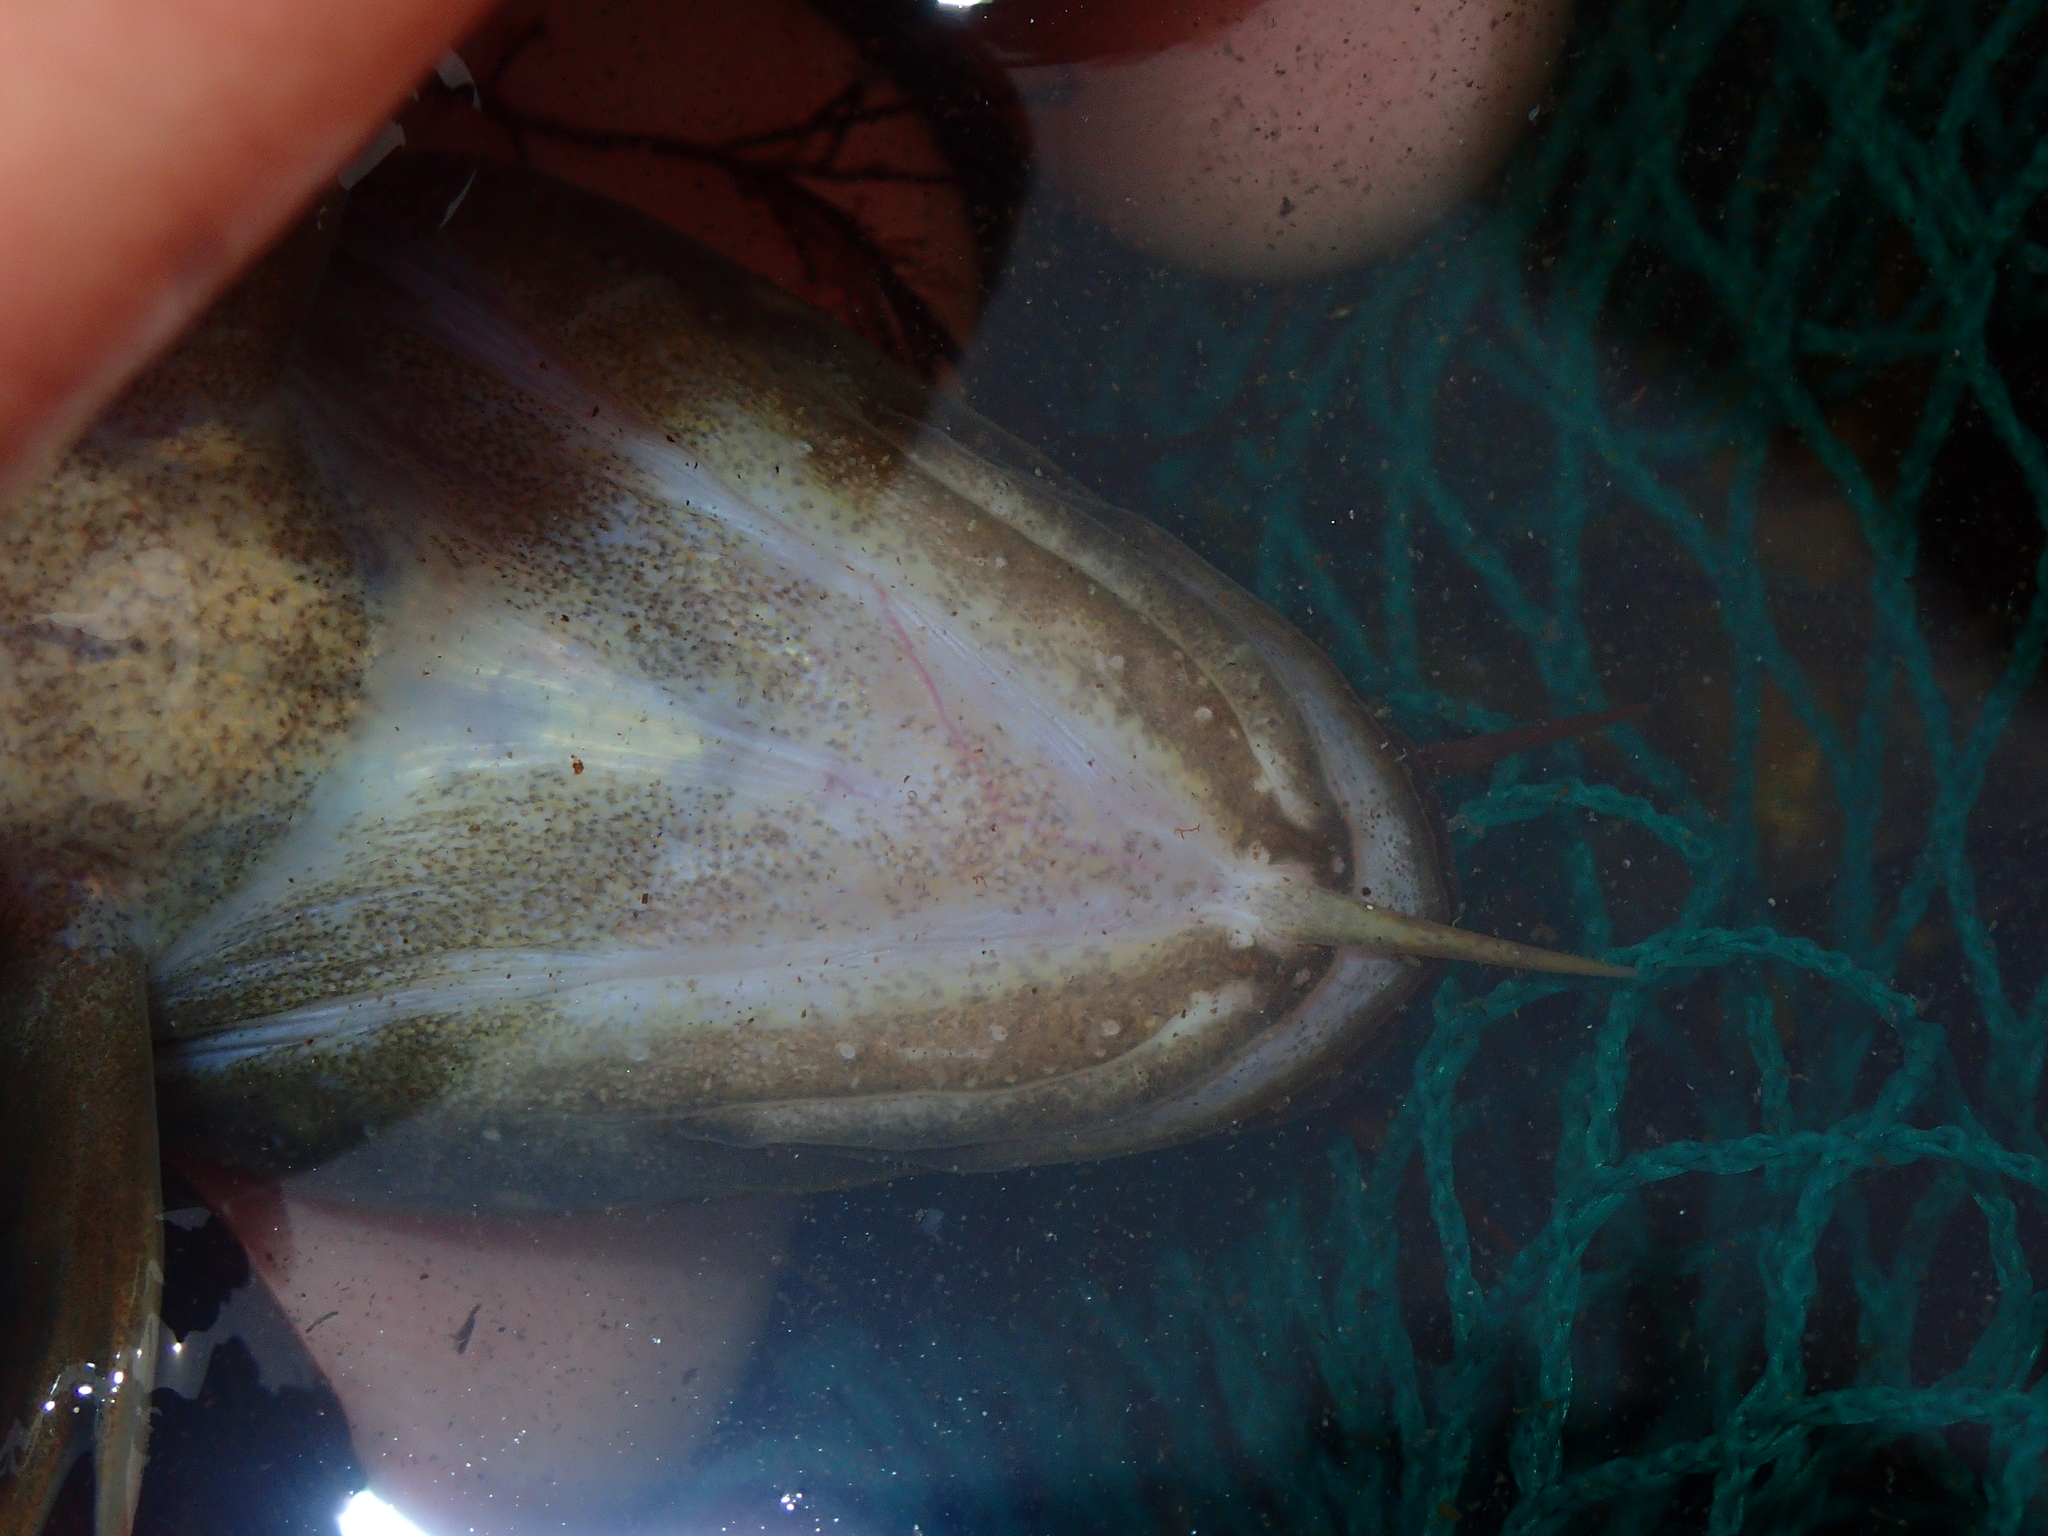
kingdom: Animalia
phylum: Chordata
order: Gadiformes
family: Lotidae
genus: Gaidropsarus
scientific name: Gaidropsarus mediterraneus
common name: Shore rockling
